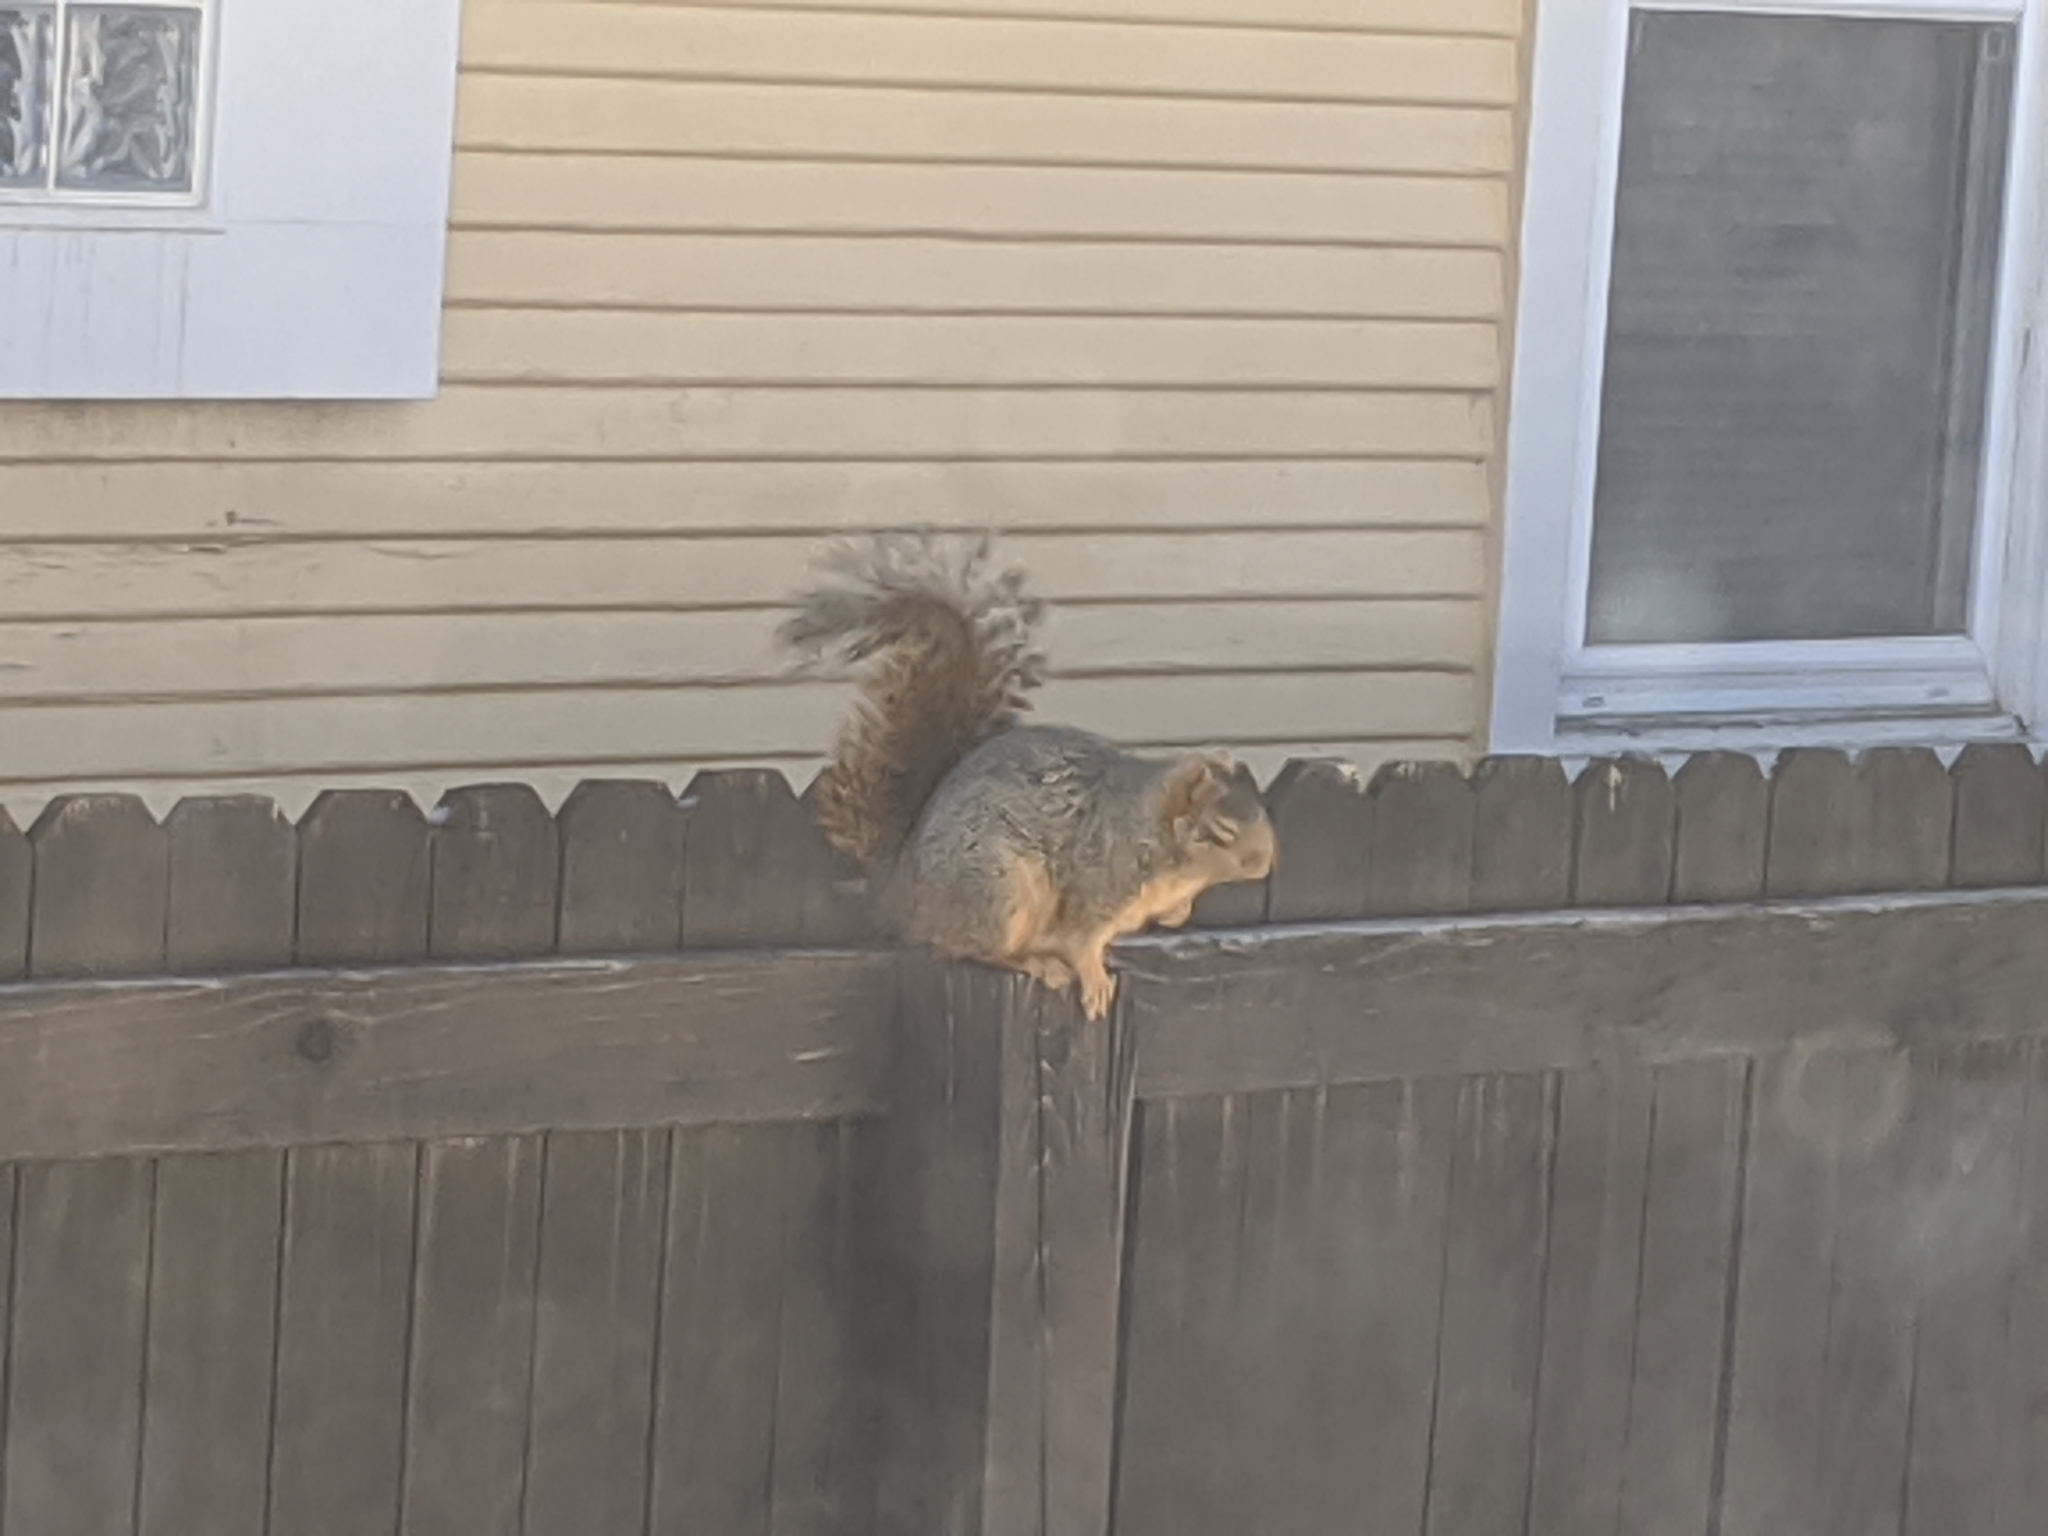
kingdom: Animalia
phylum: Chordata
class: Mammalia
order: Rodentia
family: Sciuridae
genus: Sciurus
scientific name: Sciurus niger
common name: Fox squirrel
